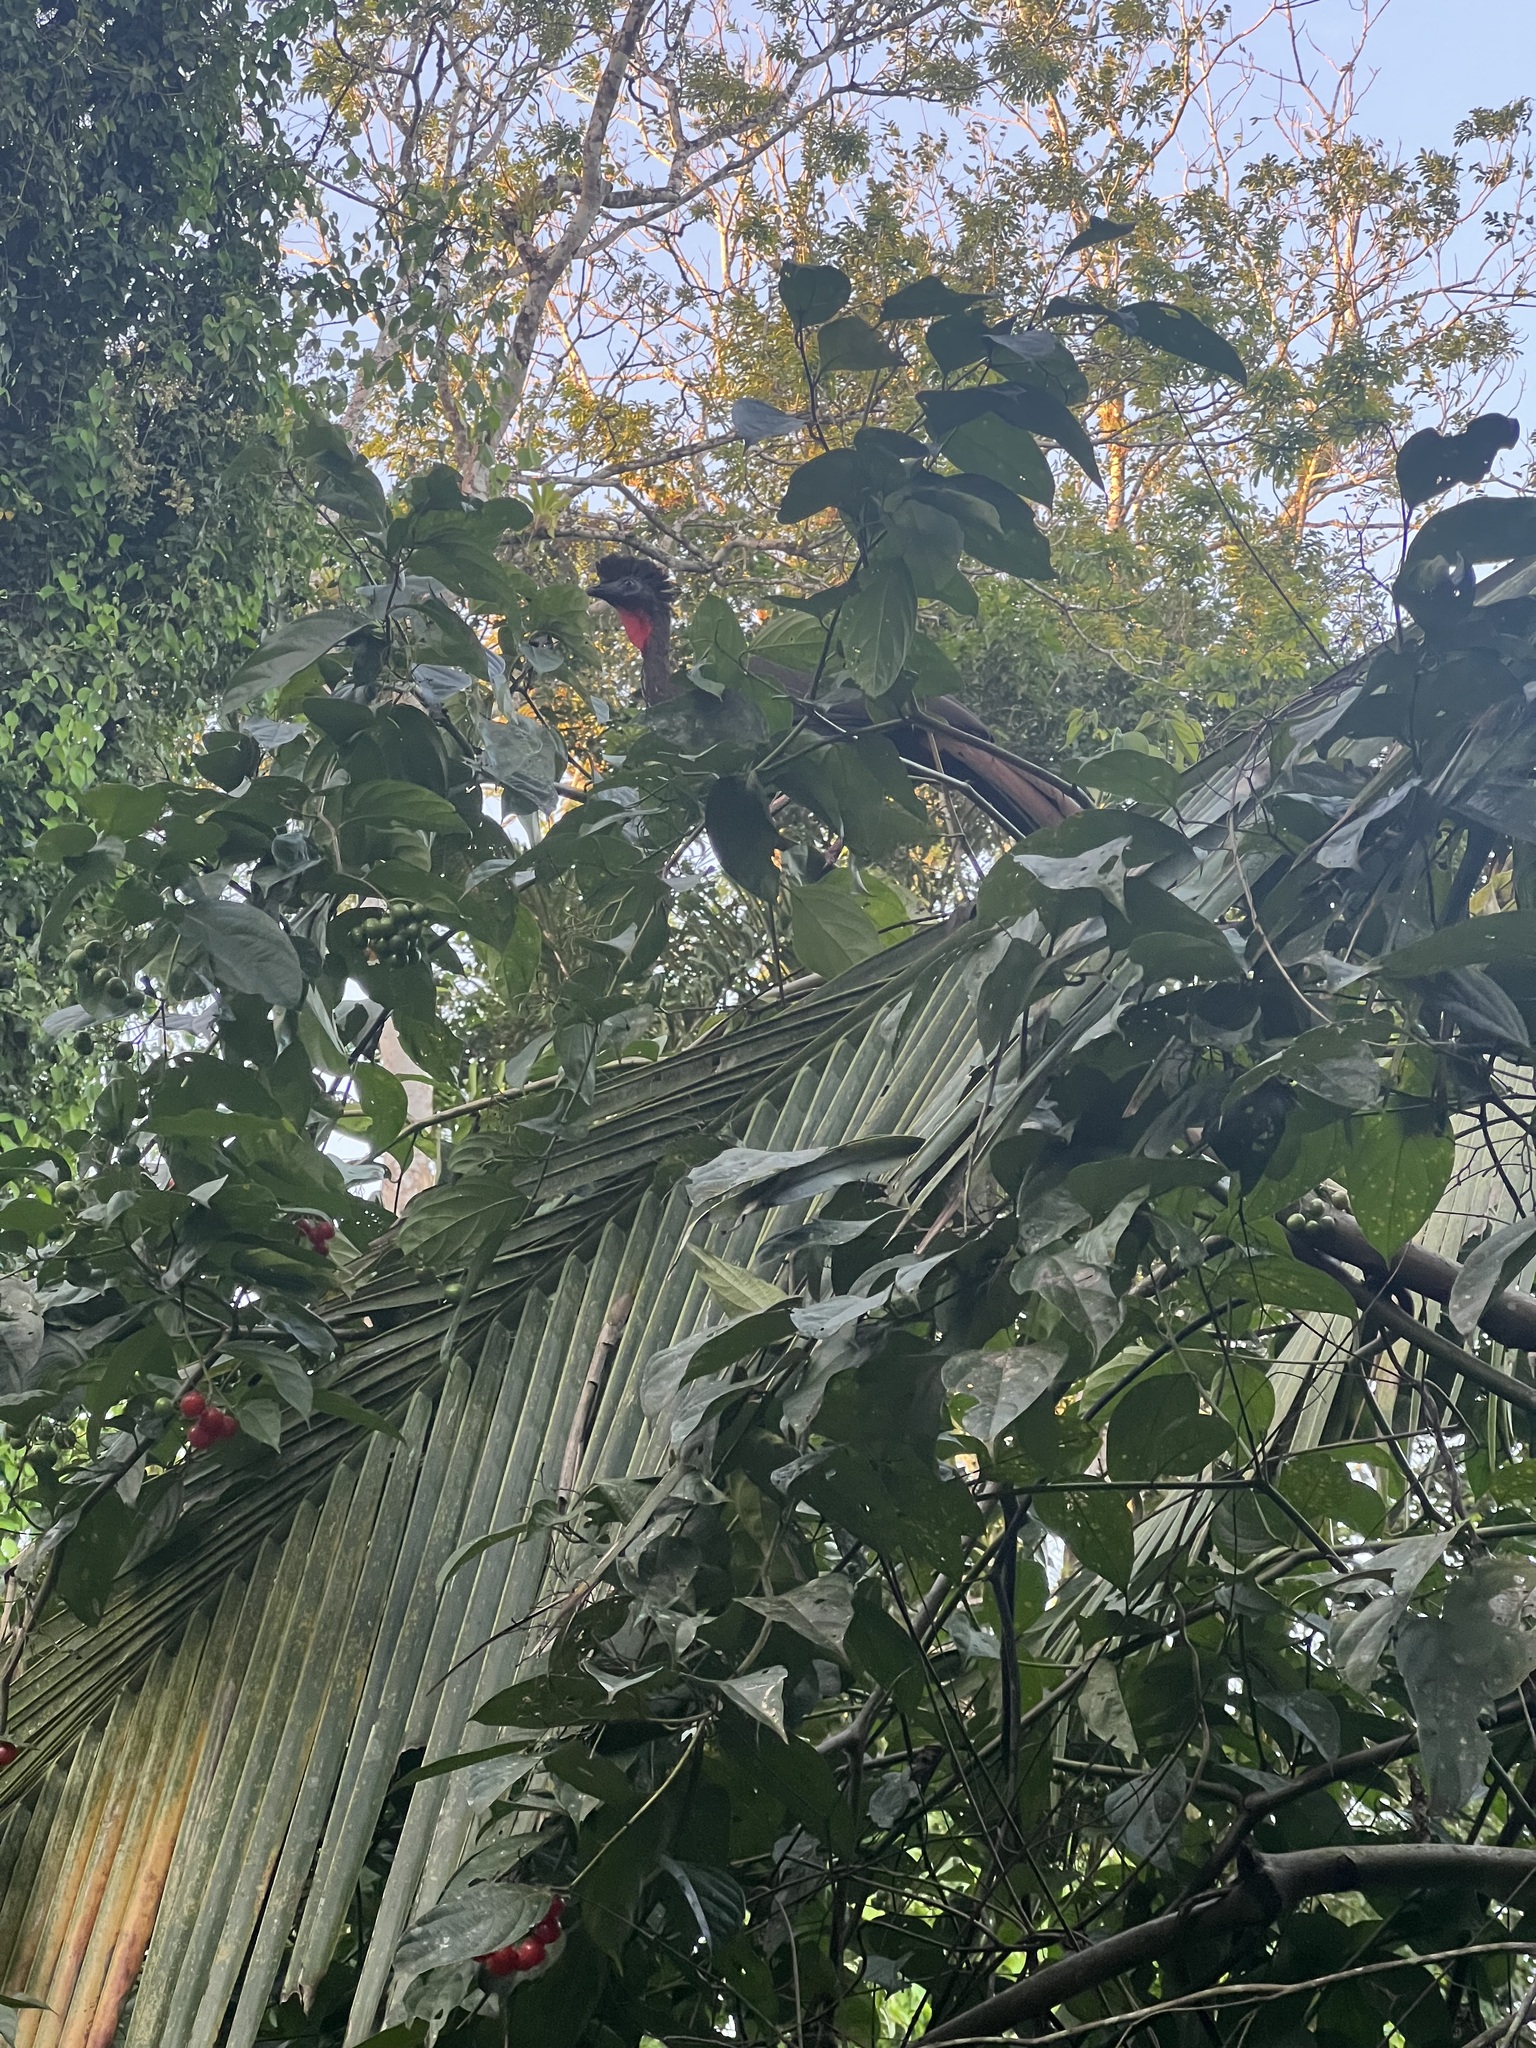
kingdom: Animalia
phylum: Chordata
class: Aves
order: Galliformes
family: Cracidae
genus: Penelope
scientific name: Penelope purpurascens
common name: Crested guan
